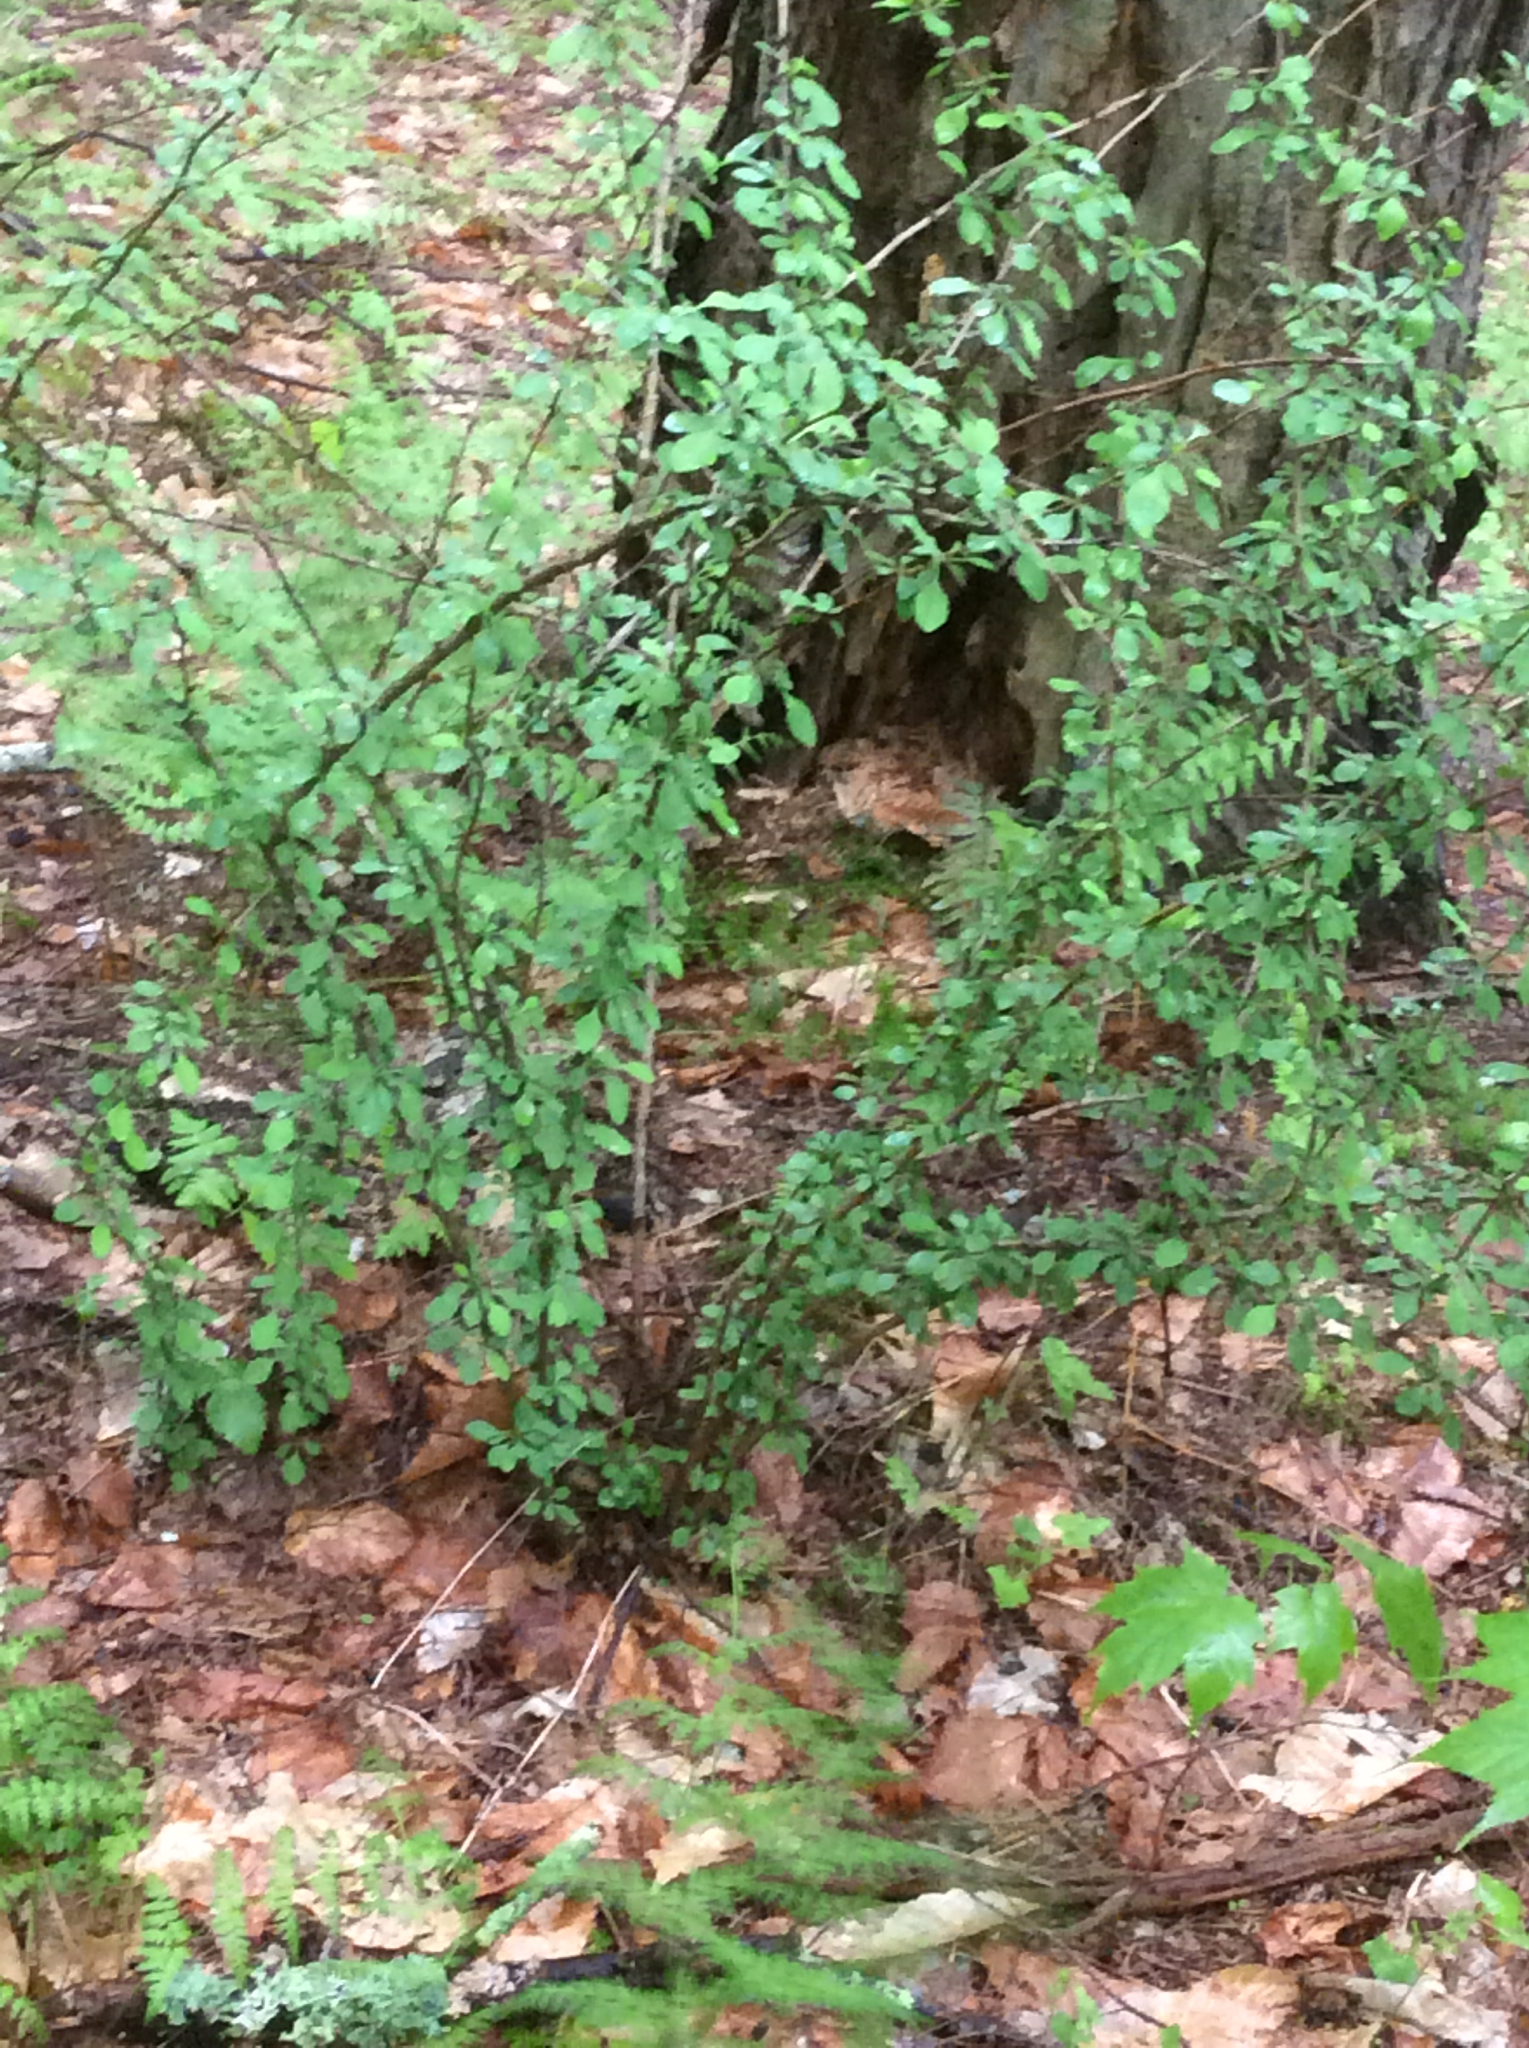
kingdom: Plantae
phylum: Tracheophyta
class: Magnoliopsida
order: Ranunculales
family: Berberidaceae
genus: Berberis
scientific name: Berberis thunbergii
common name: Japanese barberry
